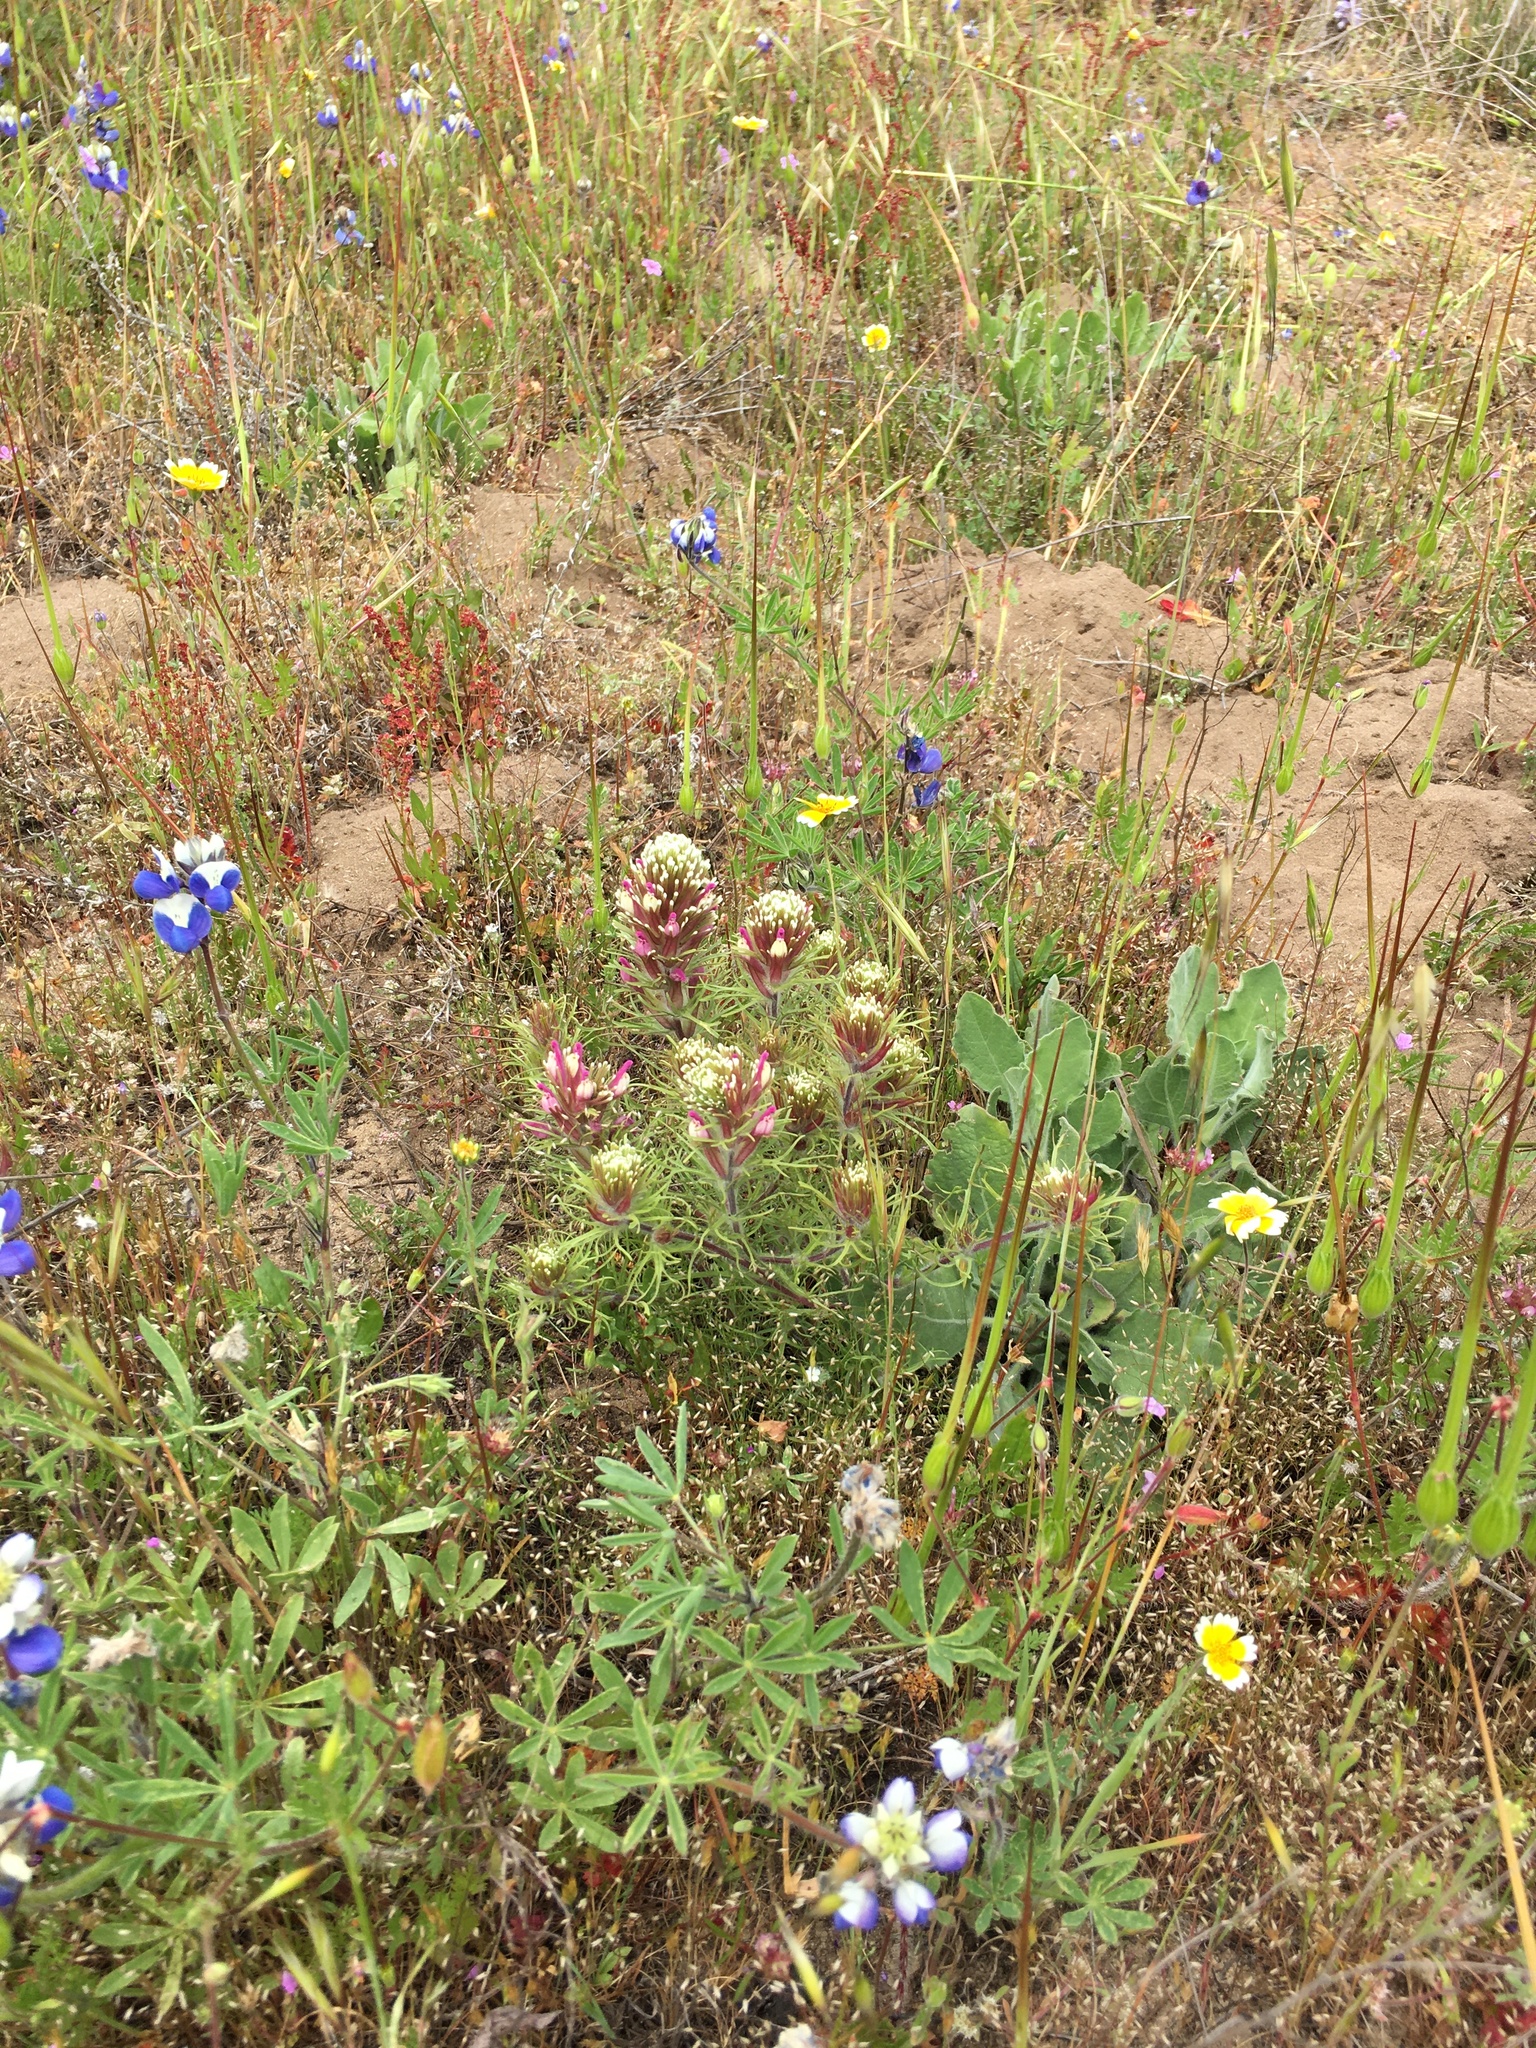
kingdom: Plantae
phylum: Tracheophyta
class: Magnoliopsida
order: Lamiales
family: Orobanchaceae
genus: Castilleja
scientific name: Castilleja exserta
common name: Purple owl-clover
